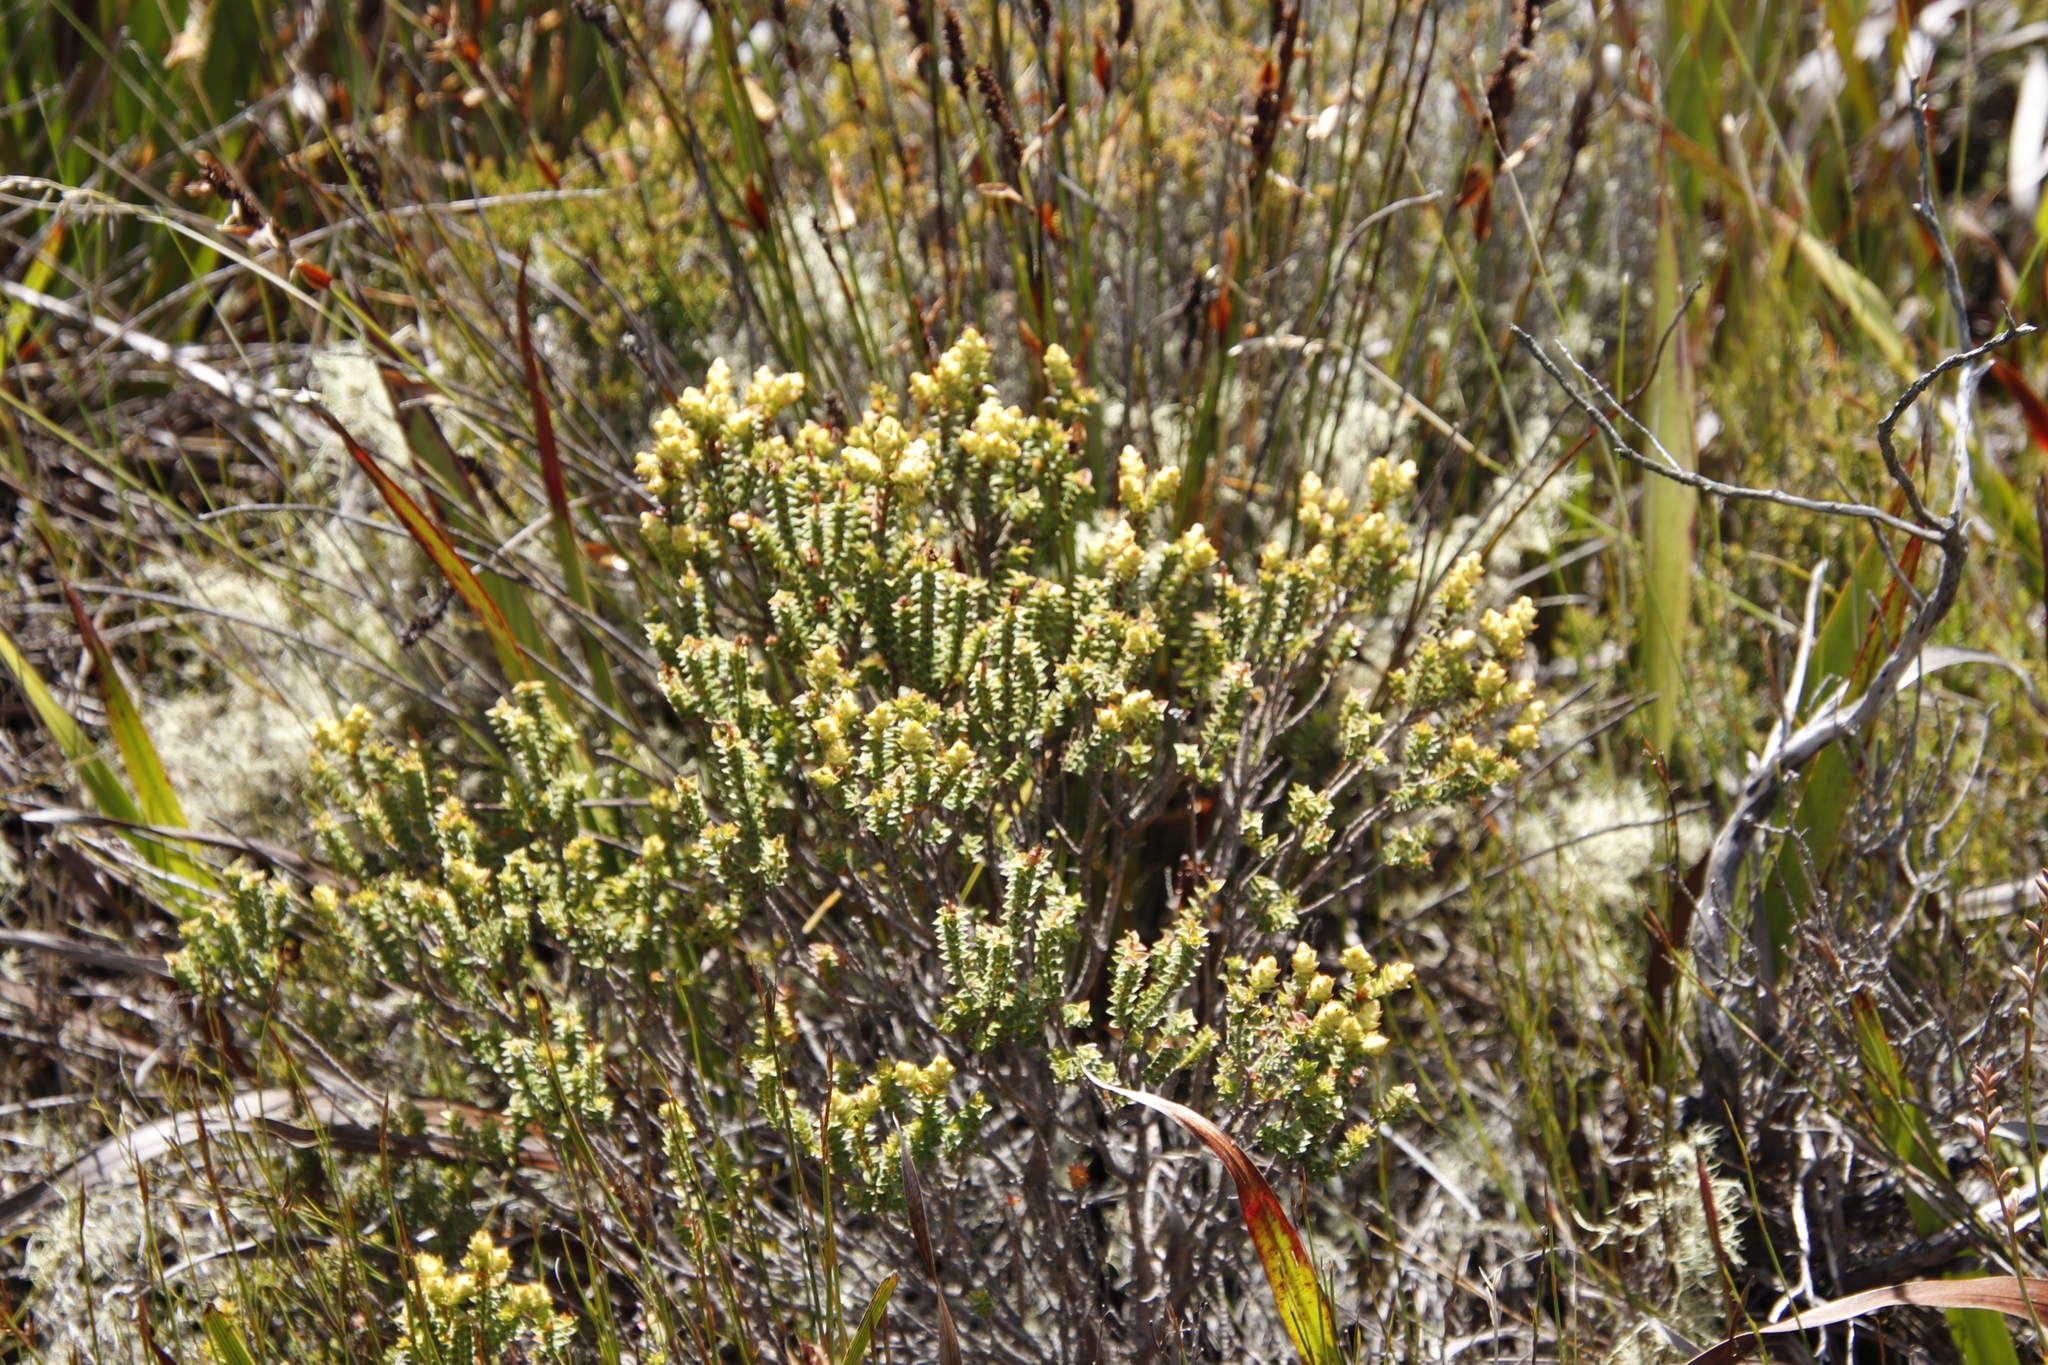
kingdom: Plantae
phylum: Tracheophyta
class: Magnoliopsida
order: Myrtales
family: Penaeaceae
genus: Penaea
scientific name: Penaea mucronata
